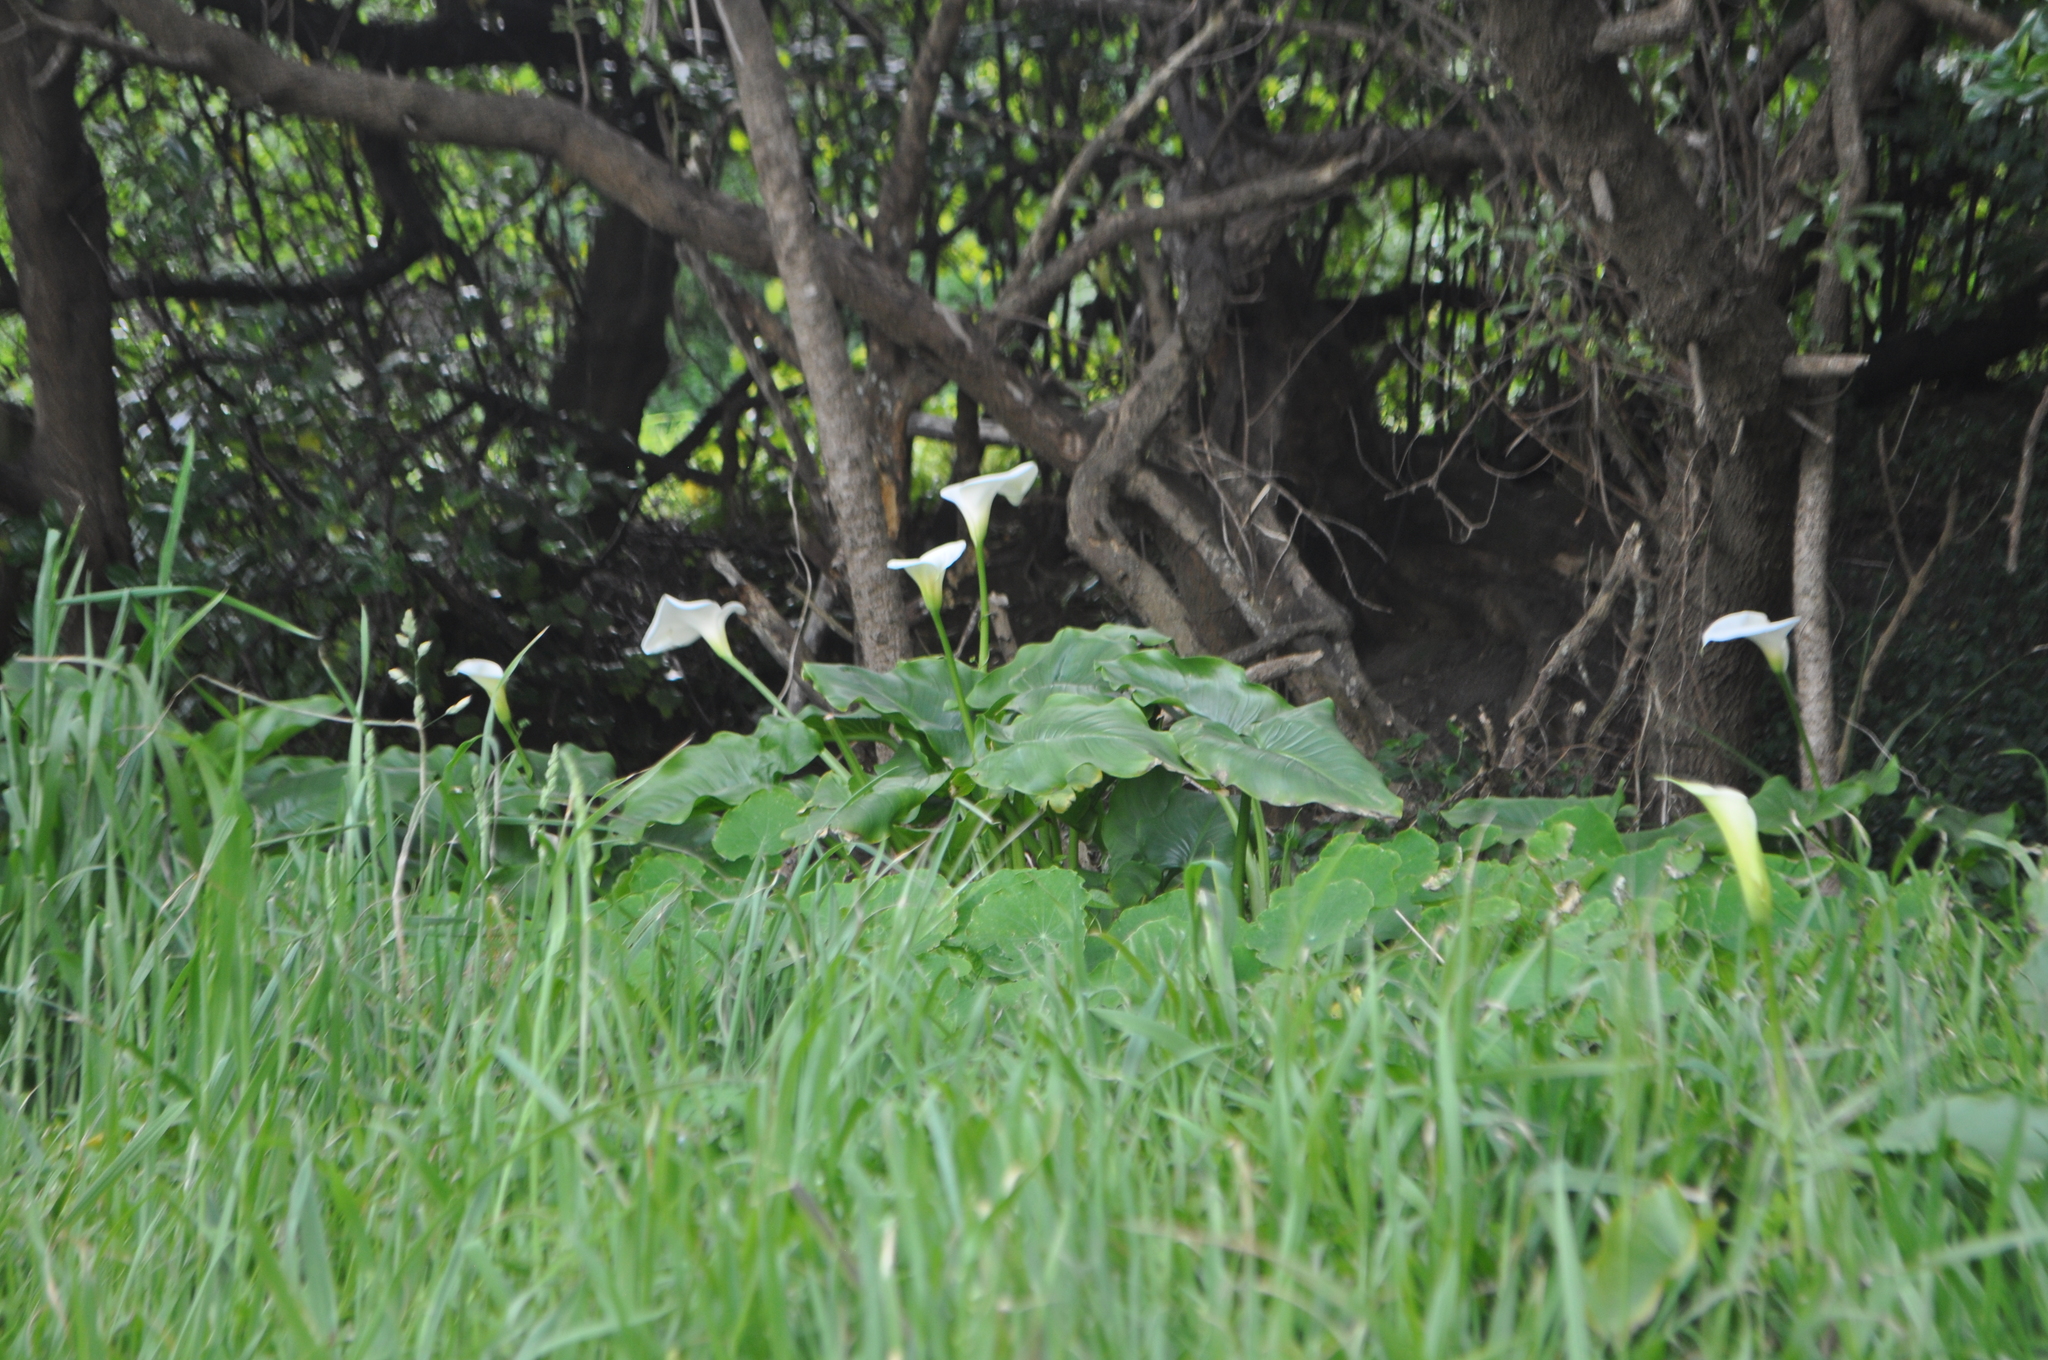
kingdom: Plantae
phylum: Tracheophyta
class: Liliopsida
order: Alismatales
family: Araceae
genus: Zantedeschia
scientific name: Zantedeschia aethiopica
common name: Altar-lily
